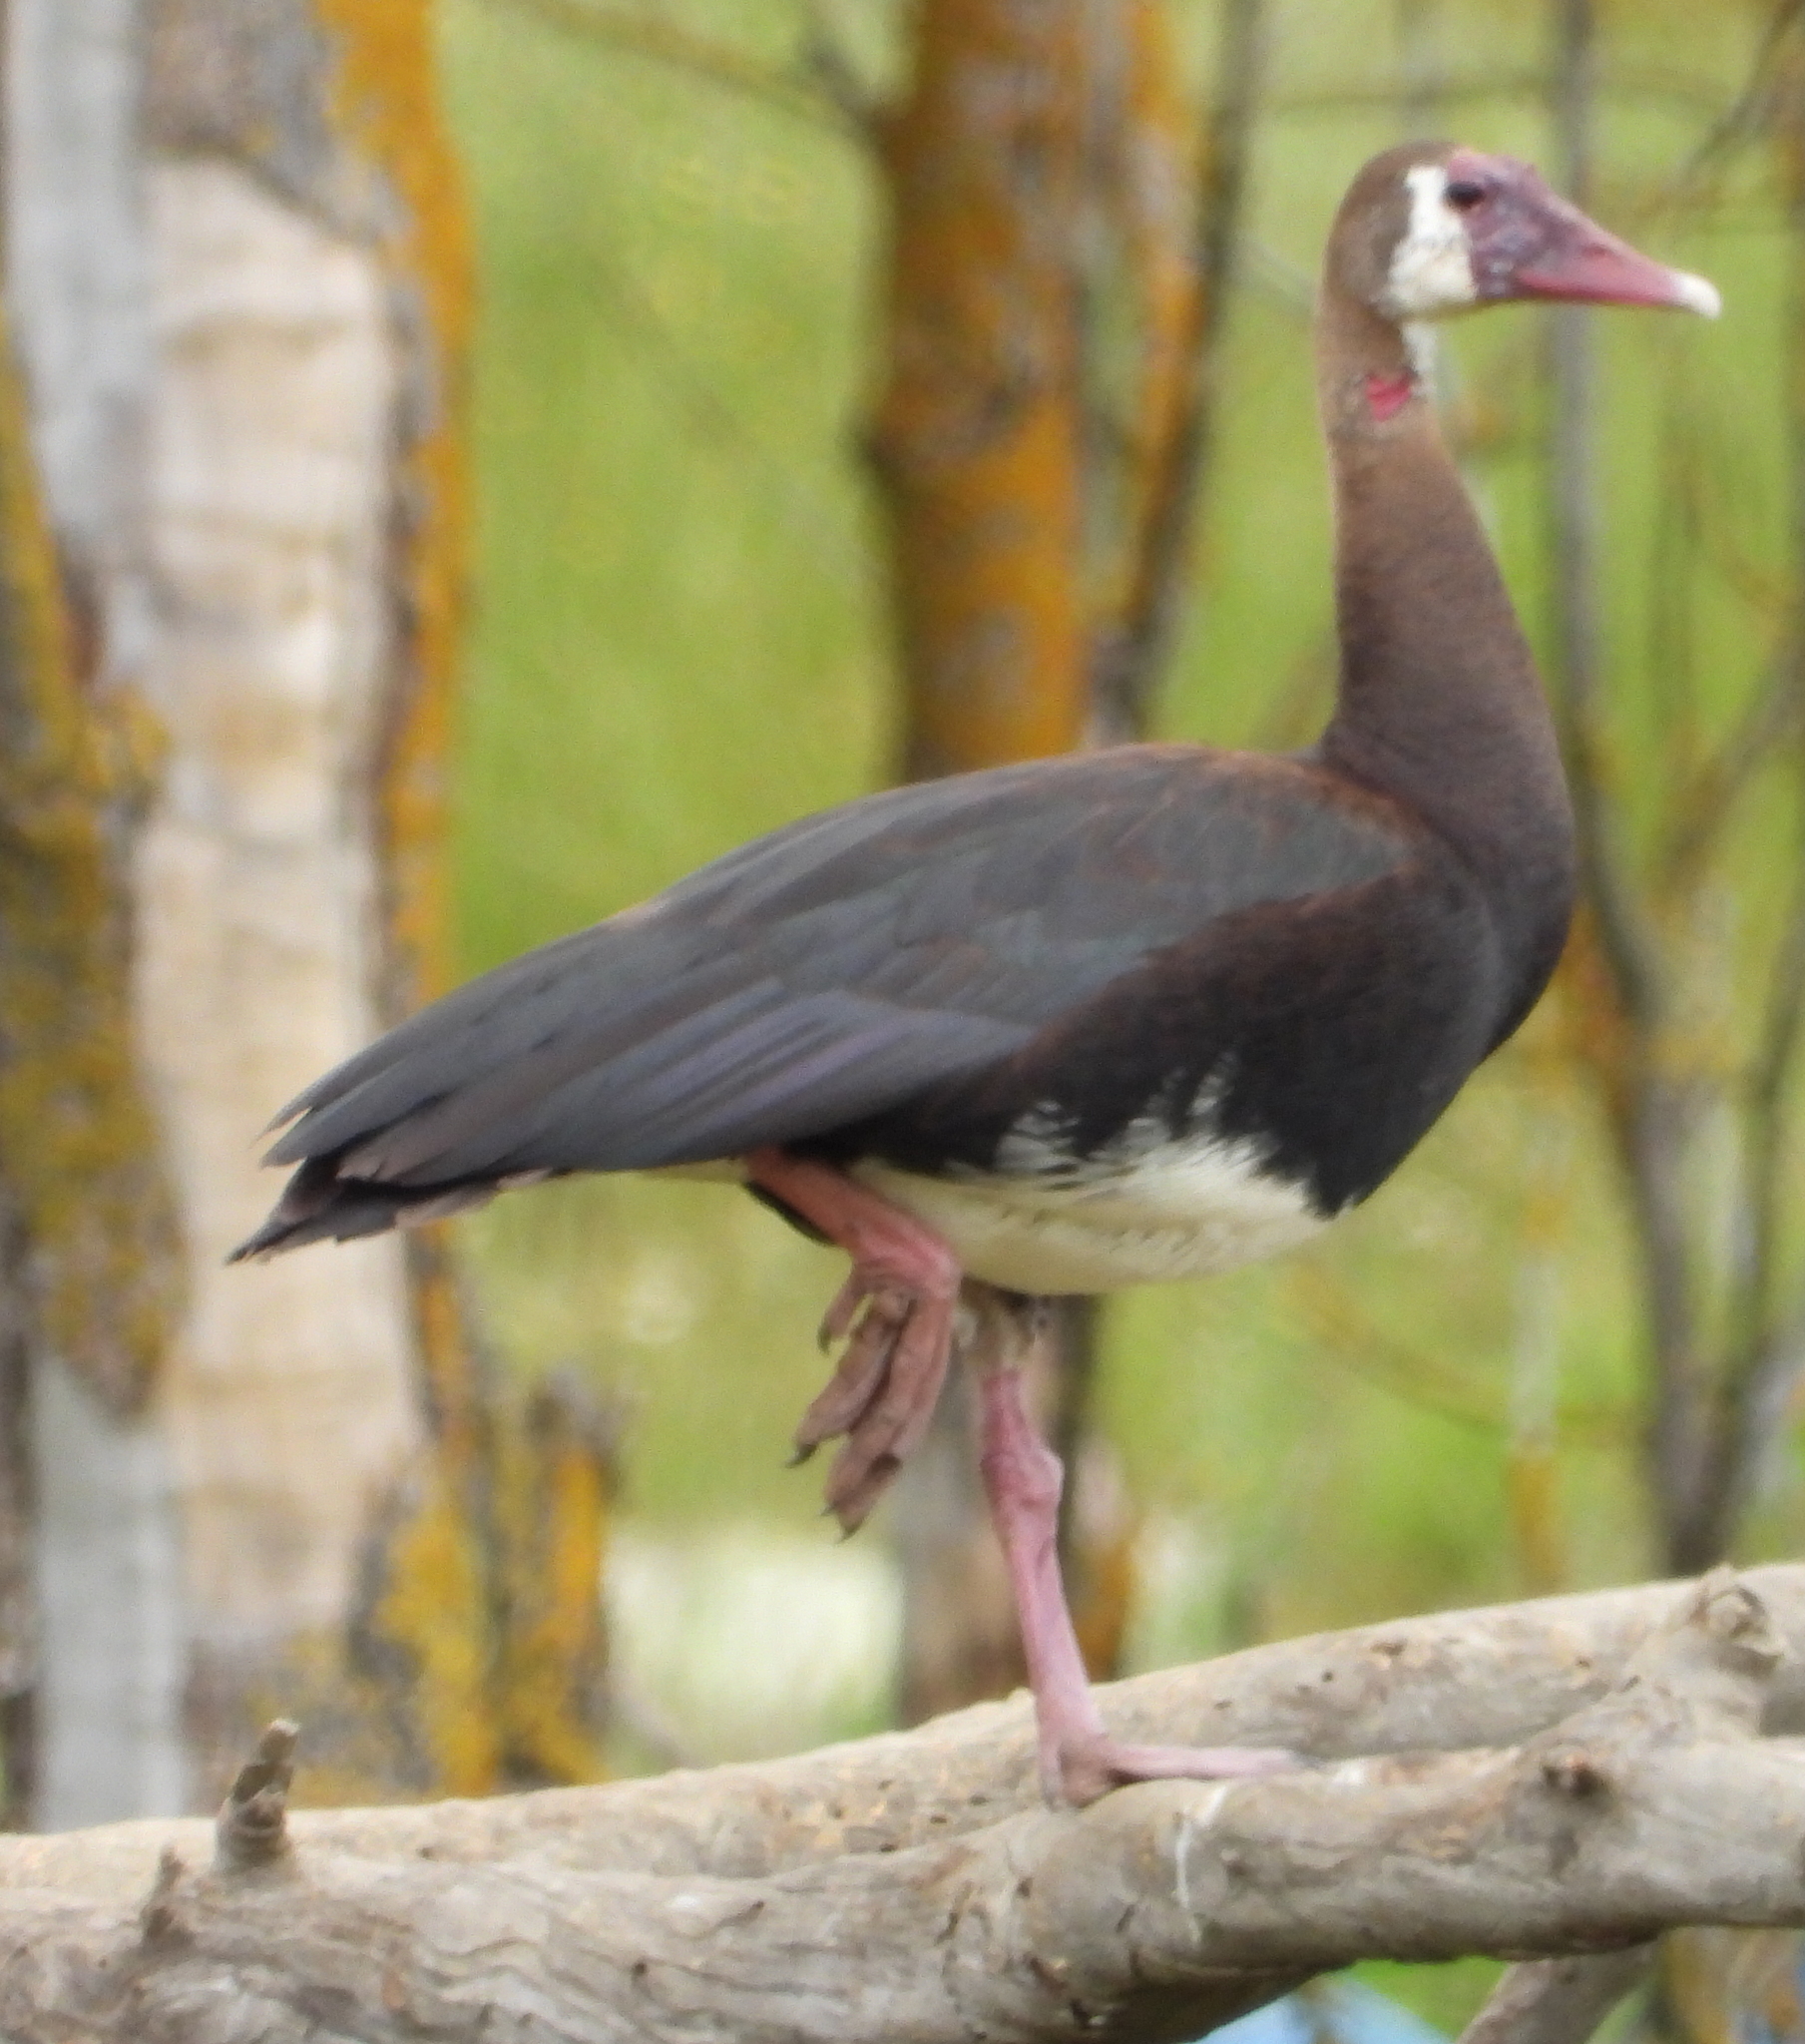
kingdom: Animalia
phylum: Chordata
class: Aves
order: Anseriformes
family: Anatidae
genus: Plectropterus
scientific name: Plectropterus gambensis
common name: Spur-winged goose
